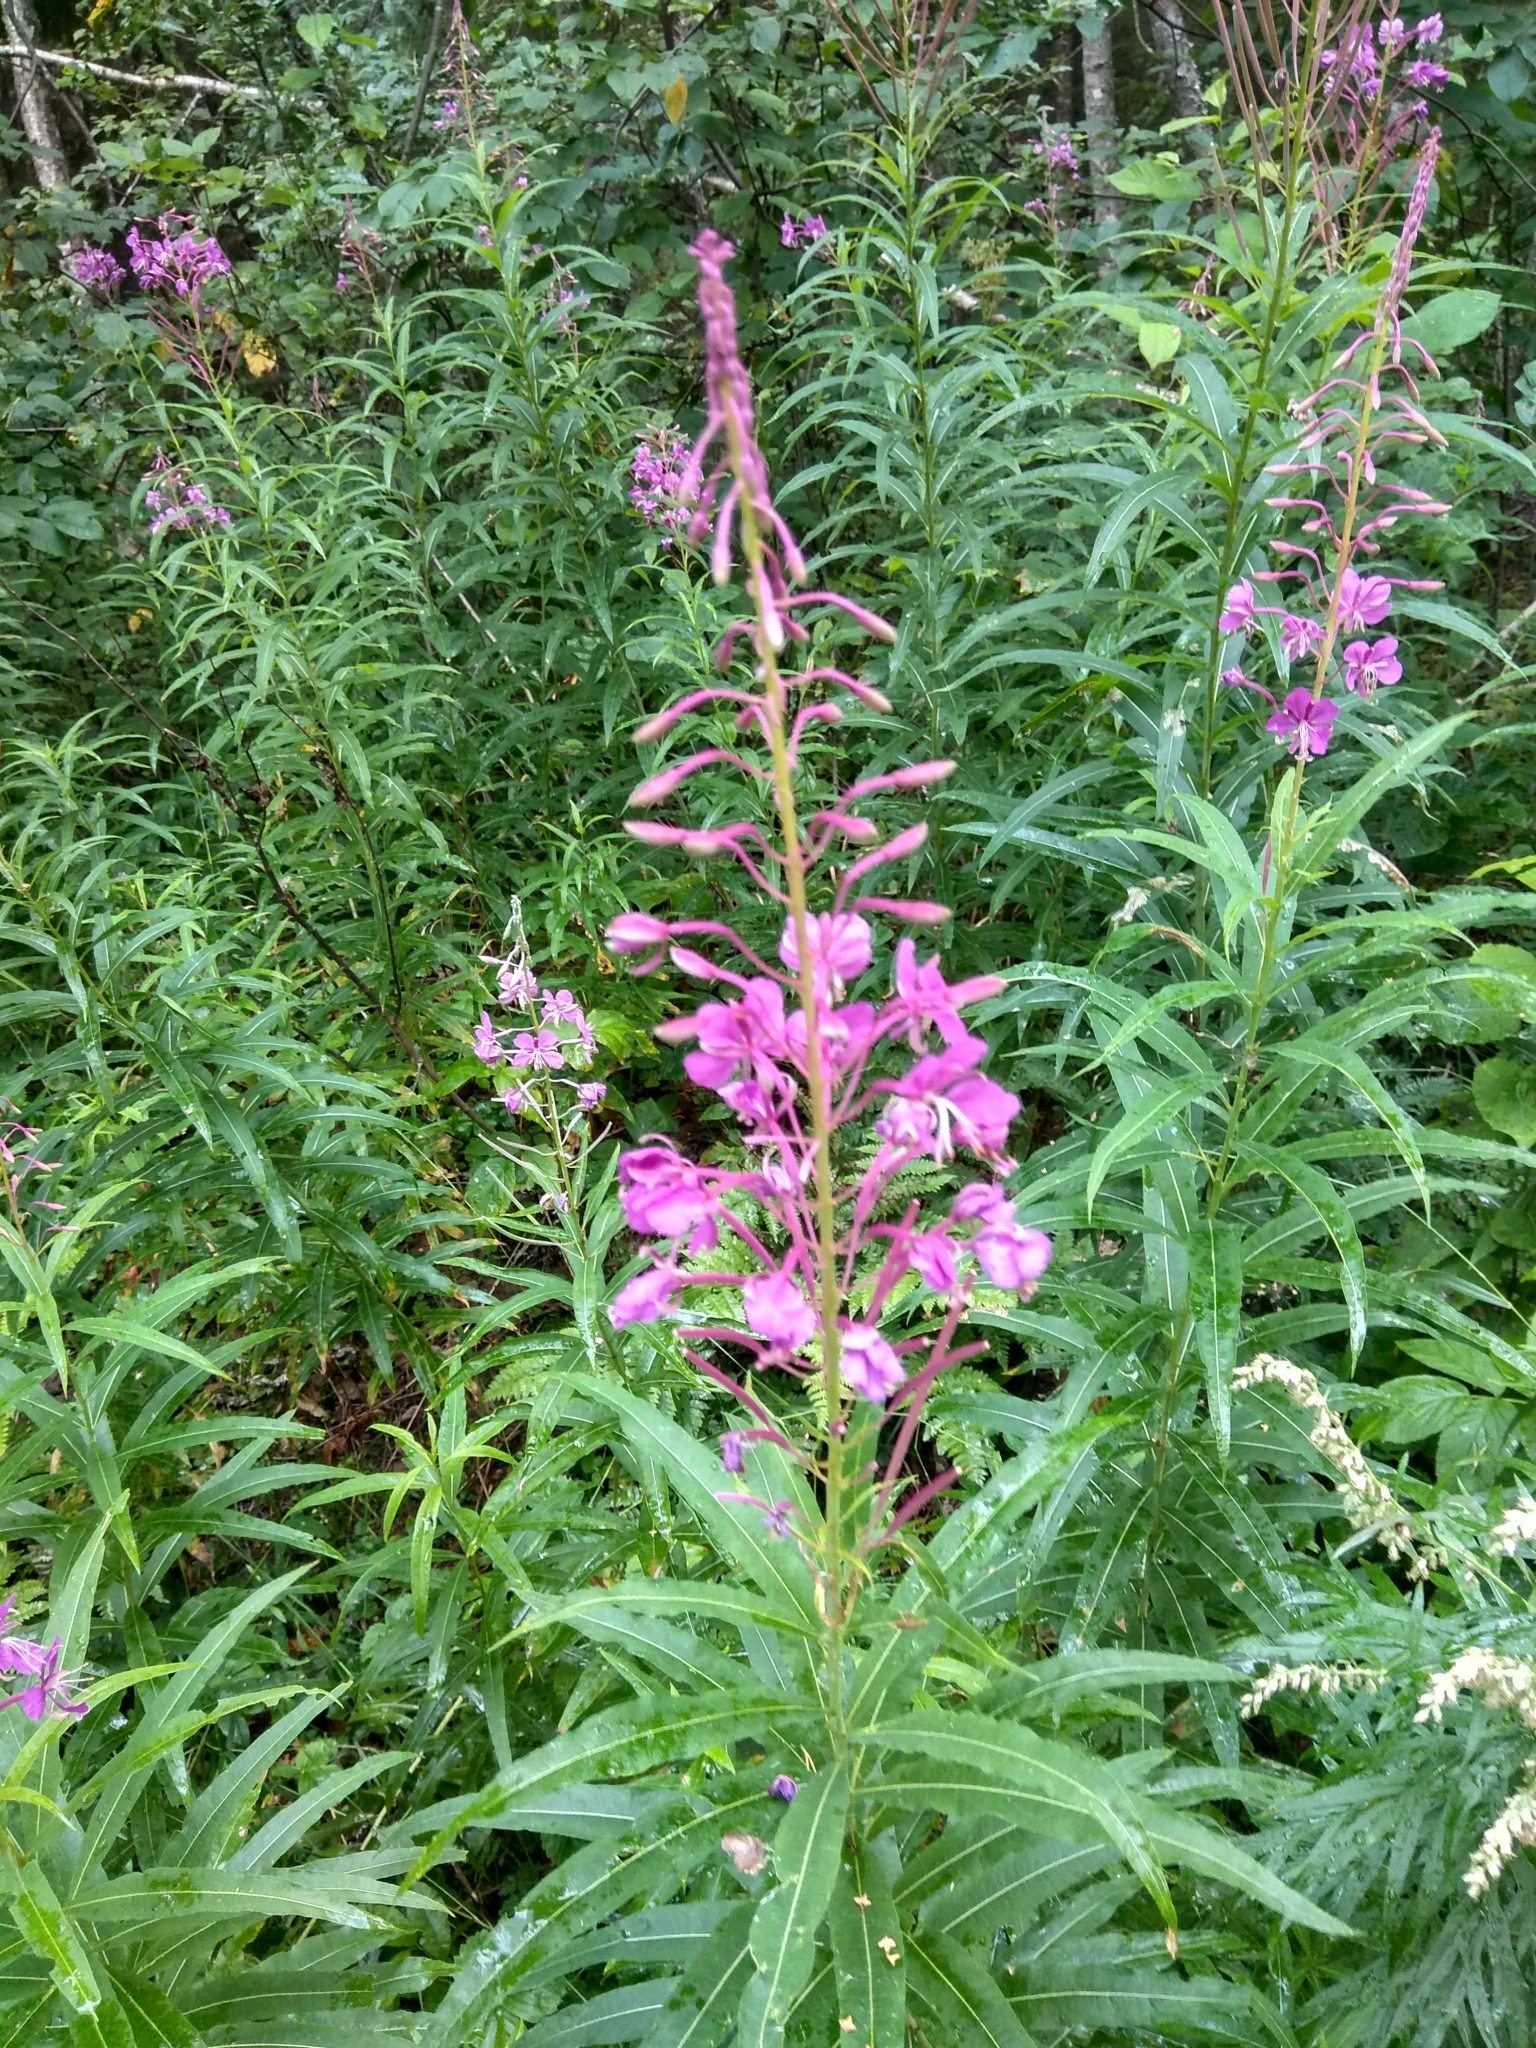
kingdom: Plantae
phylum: Tracheophyta
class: Magnoliopsida
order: Myrtales
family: Onagraceae
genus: Chamaenerion
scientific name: Chamaenerion angustifolium
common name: Fireweed
